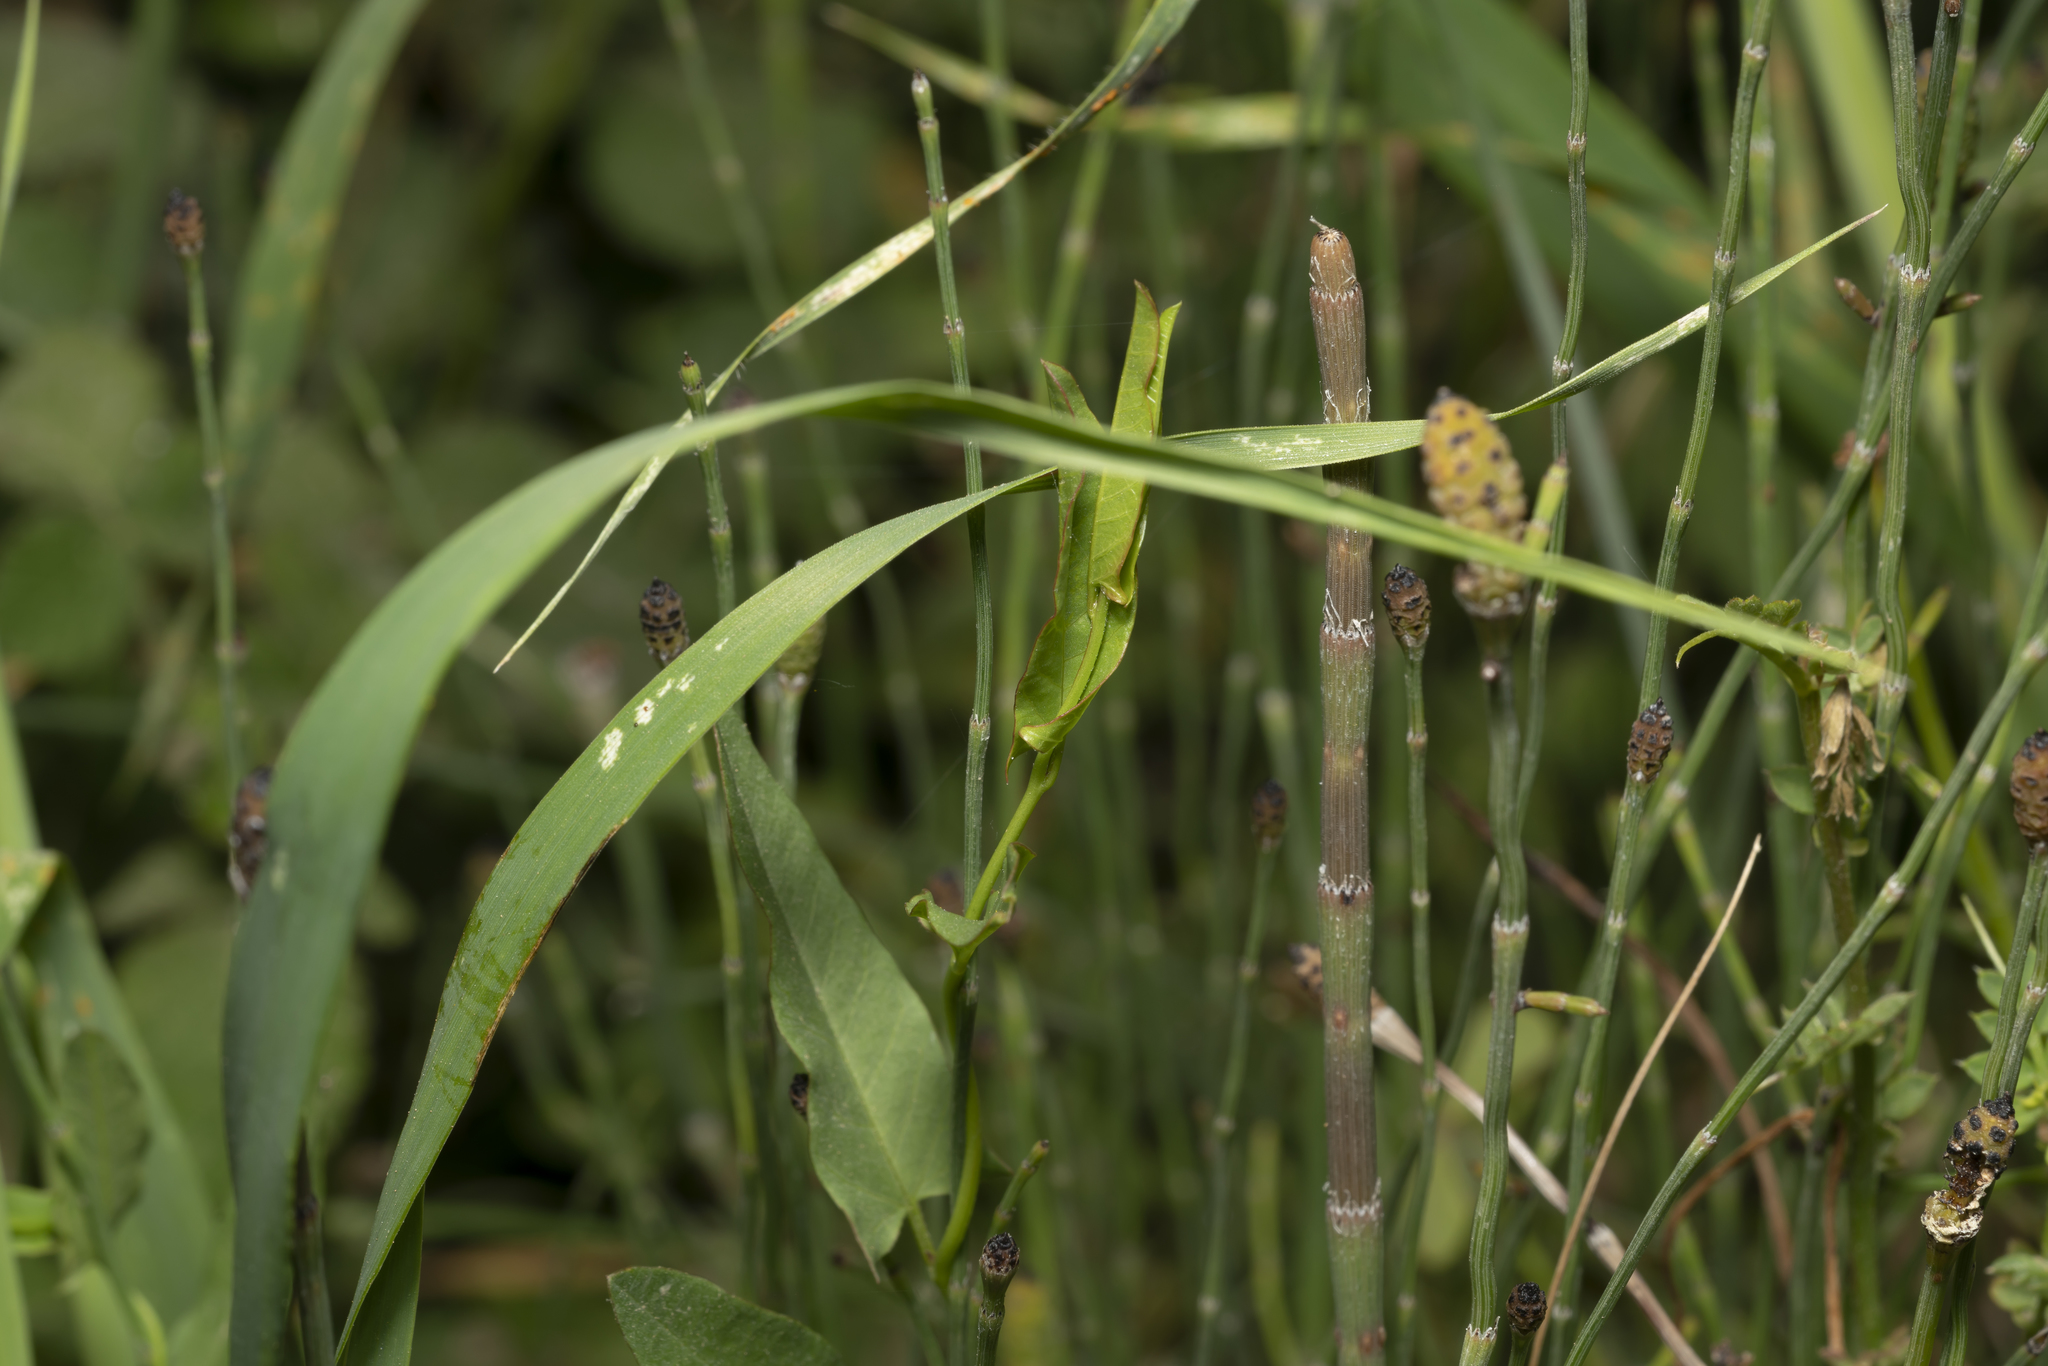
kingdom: Plantae
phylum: Tracheophyta
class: Magnoliopsida
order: Solanales
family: Convolvulaceae
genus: Convolvulus
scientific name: Convolvulus arvensis
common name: Field bindweed
